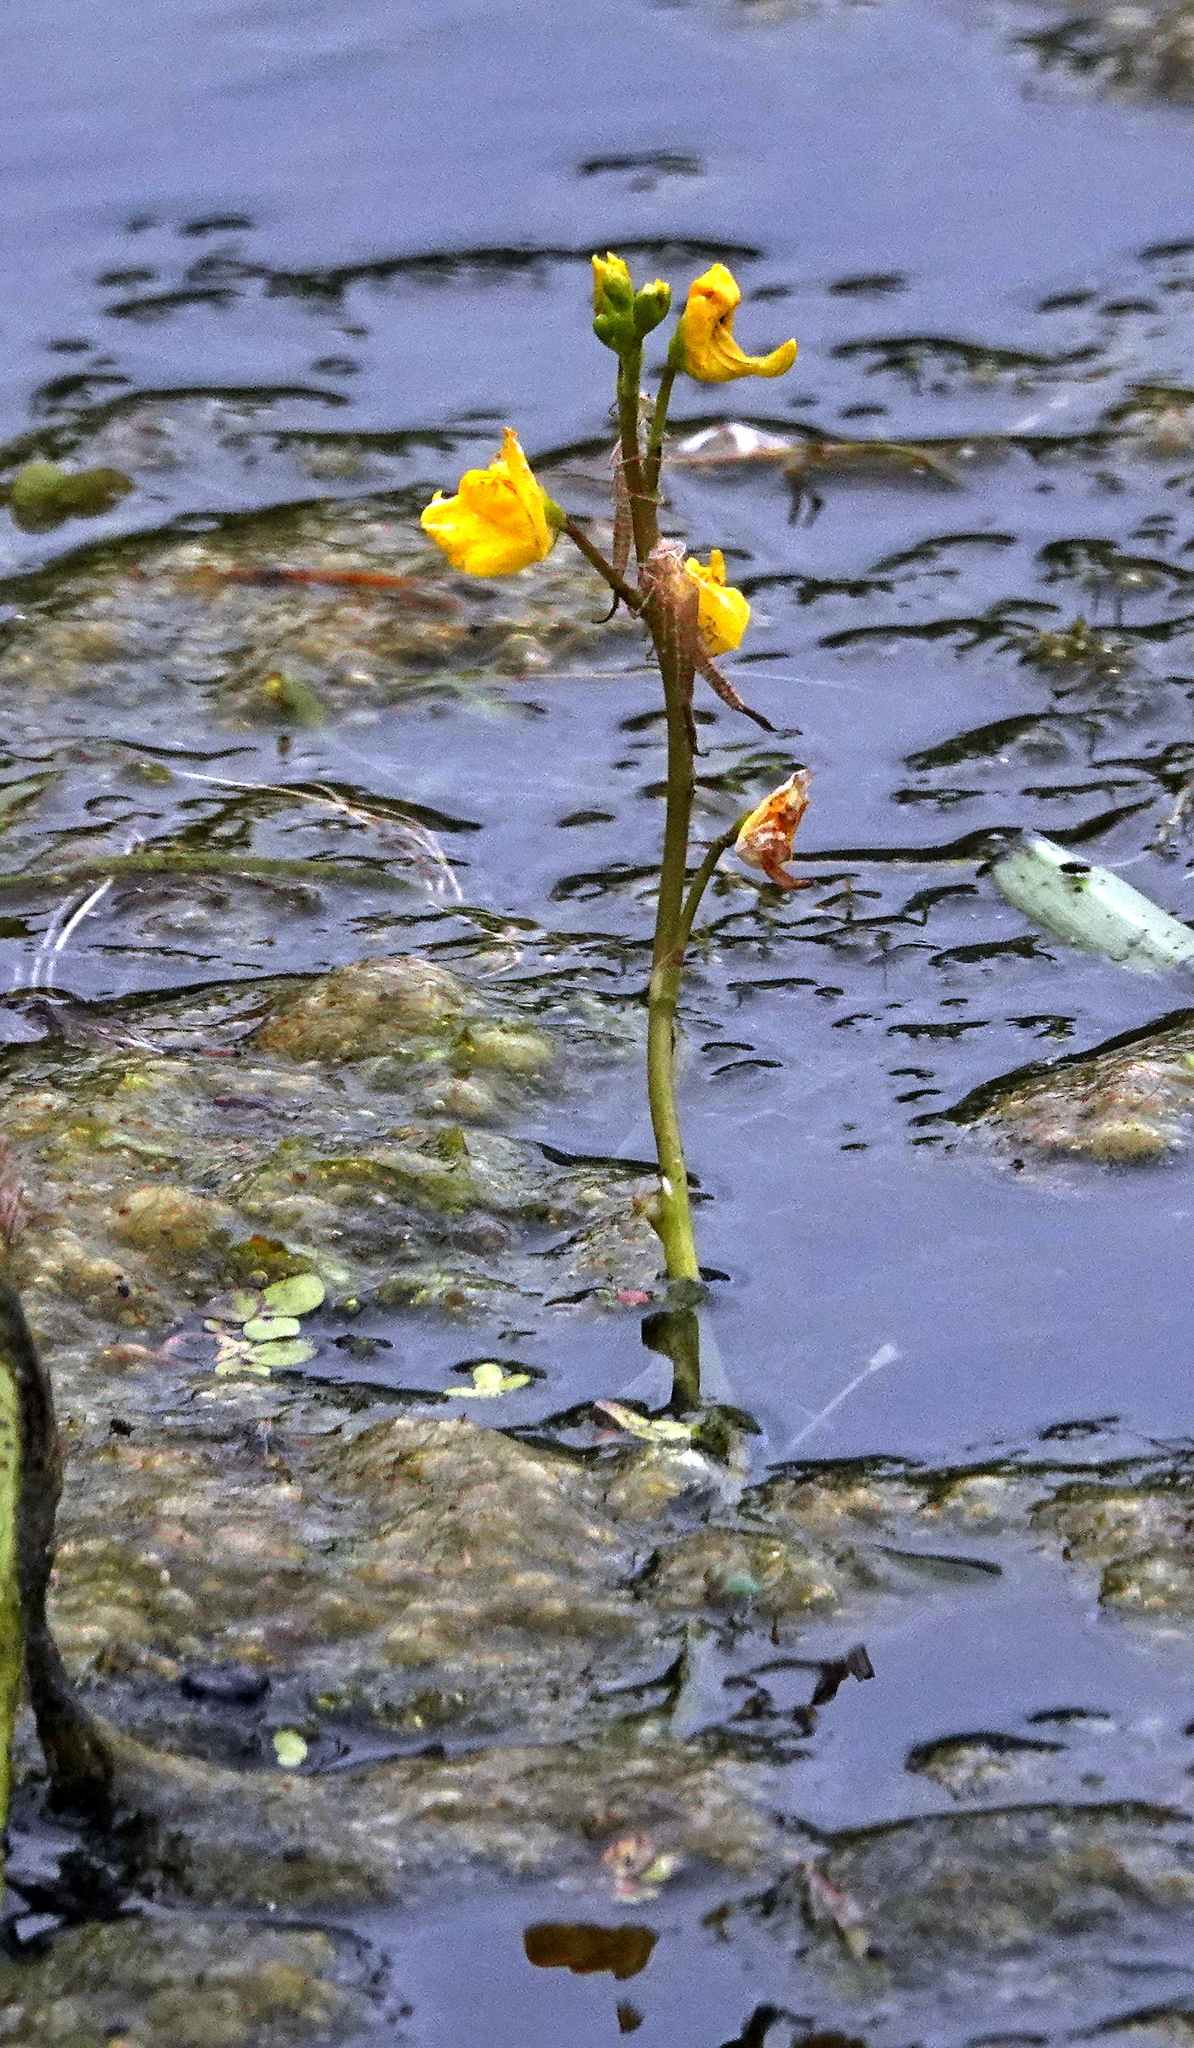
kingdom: Plantae
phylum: Tracheophyta
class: Magnoliopsida
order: Lamiales
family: Lentibulariaceae
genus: Utricularia
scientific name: Utricularia macrorhiza
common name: Common bladderwort
